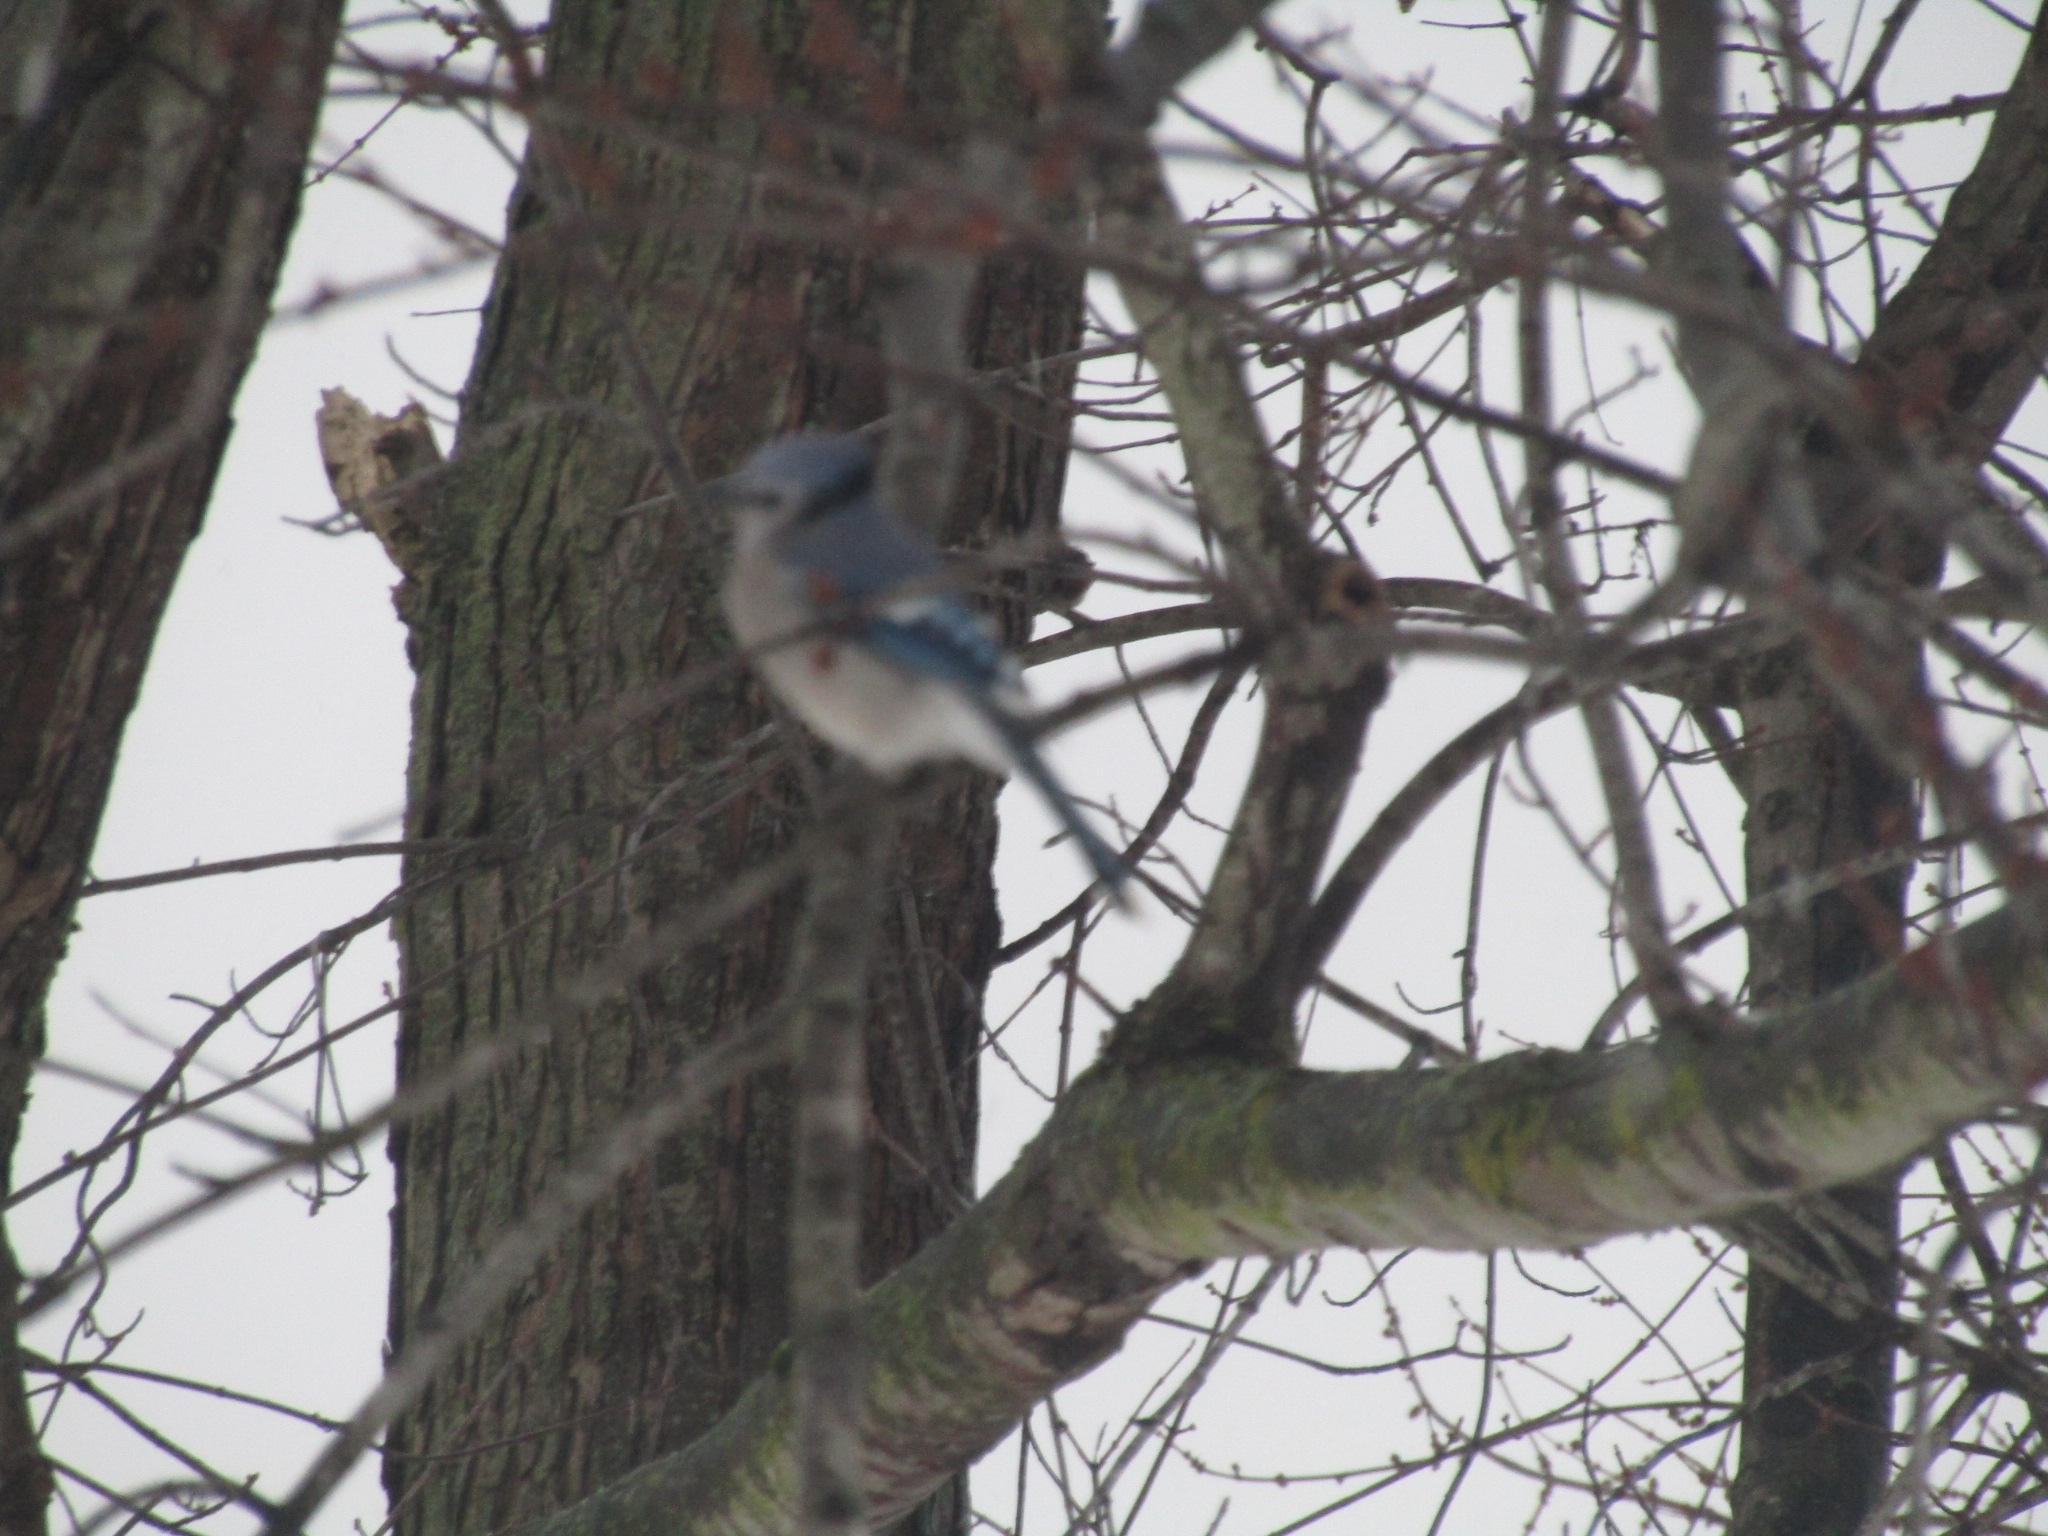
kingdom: Animalia
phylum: Chordata
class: Aves
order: Passeriformes
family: Corvidae
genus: Cyanocitta
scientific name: Cyanocitta cristata
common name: Blue jay
